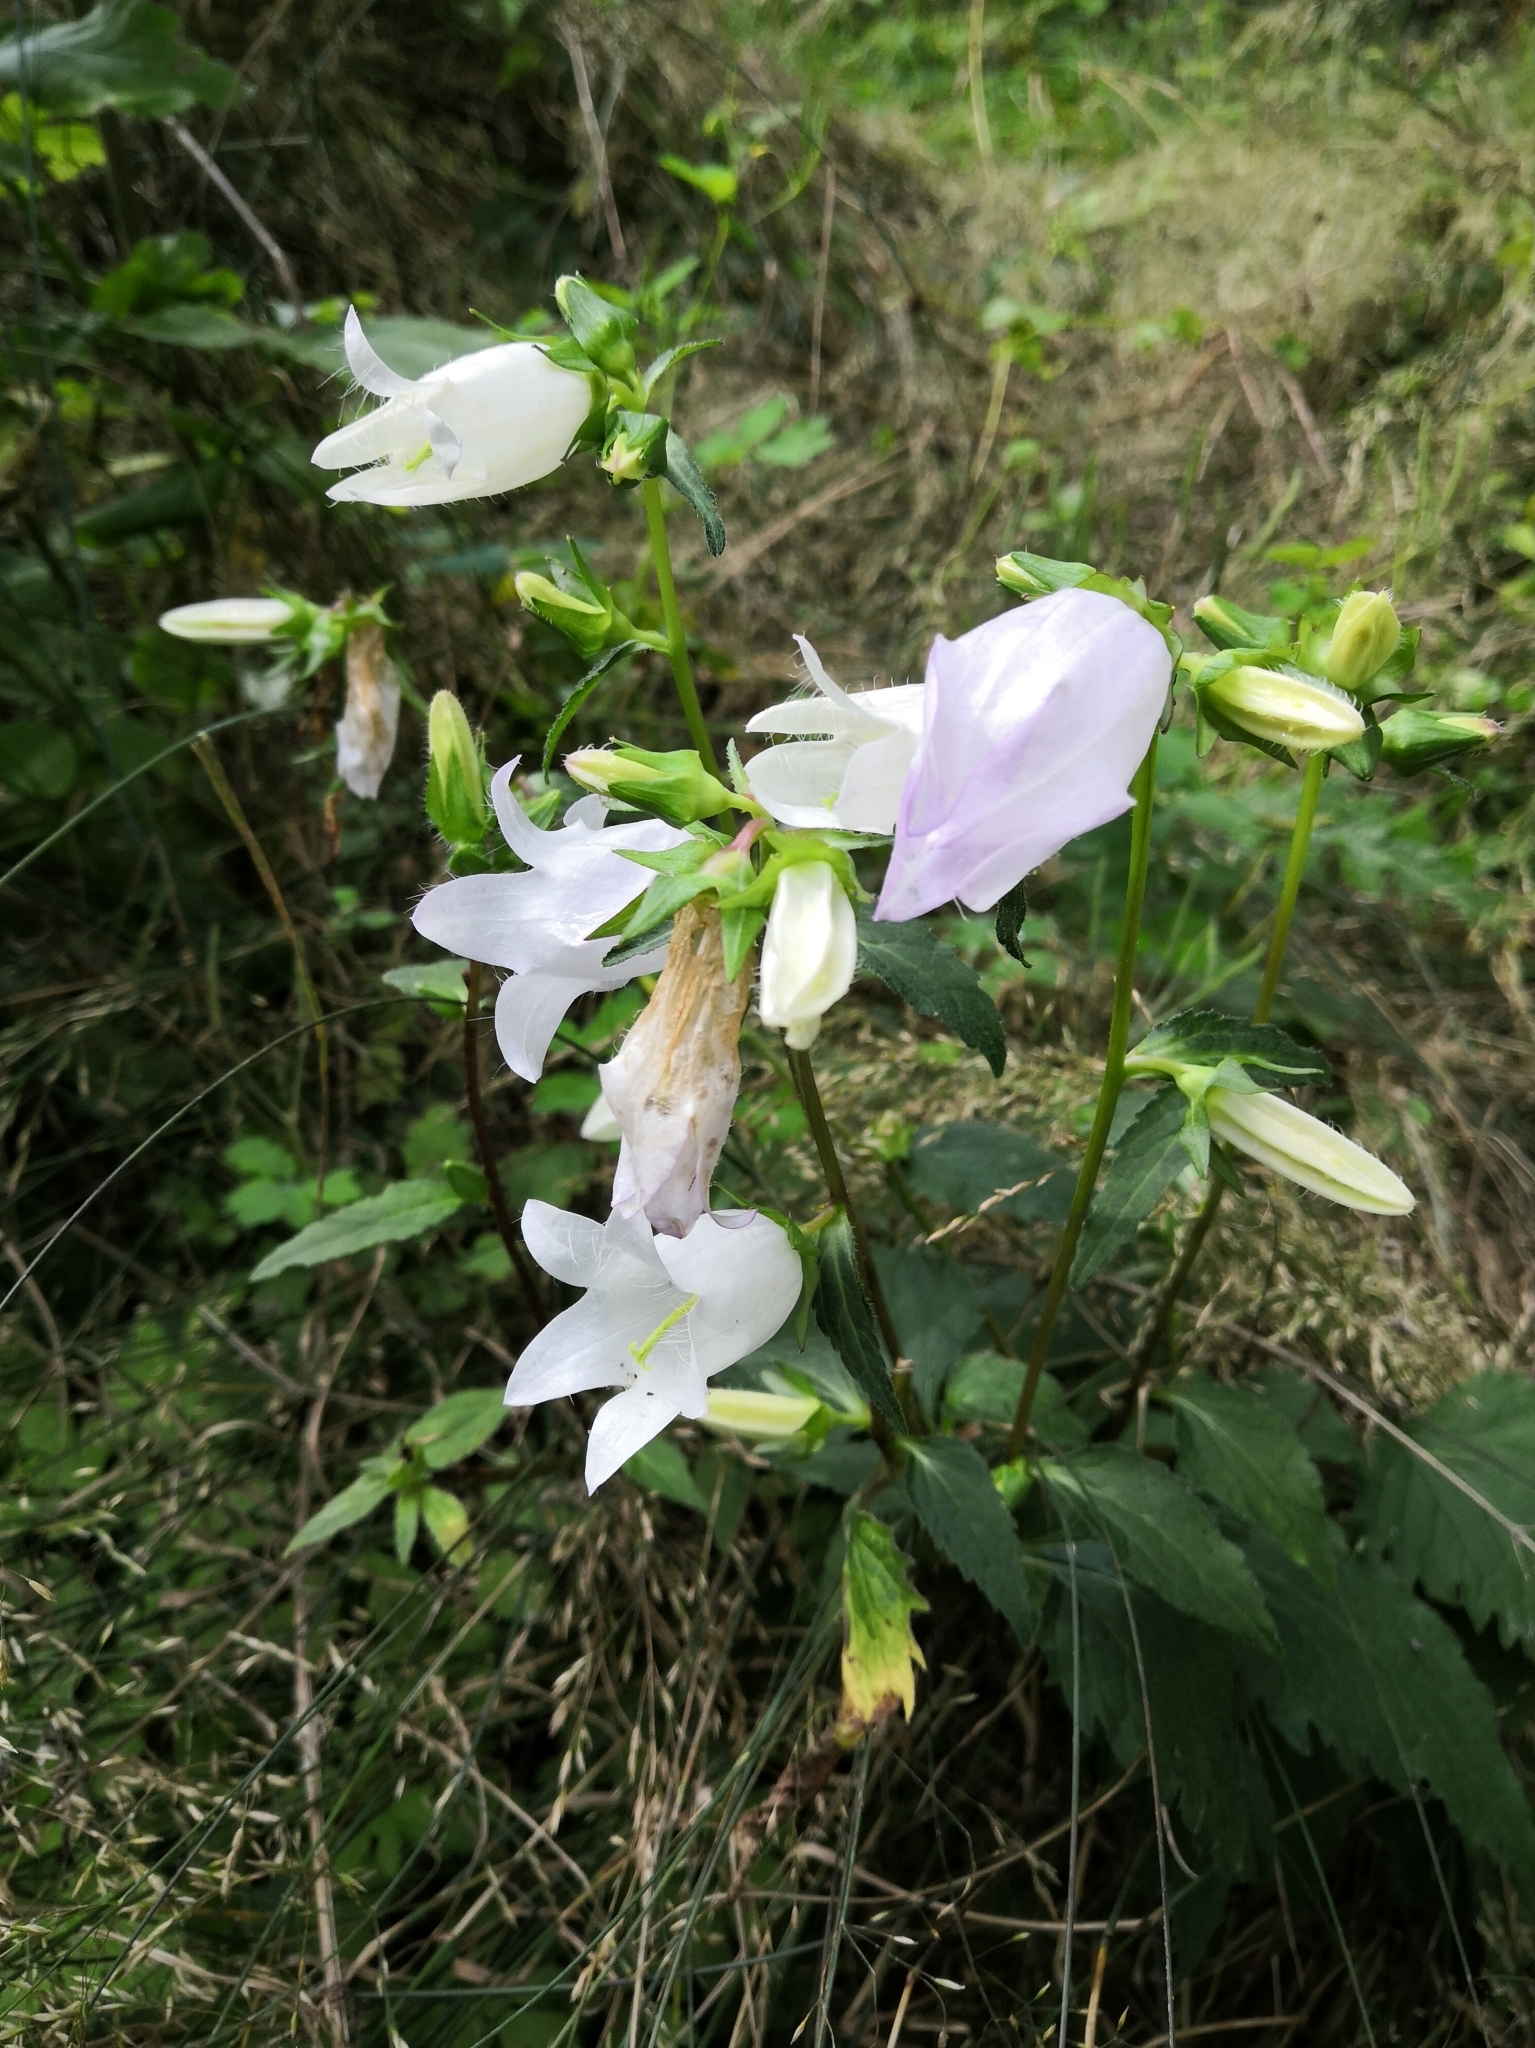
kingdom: Plantae
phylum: Tracheophyta
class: Magnoliopsida
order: Asterales
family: Campanulaceae
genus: Campanula
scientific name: Campanula trachelium
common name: Nettle-leaved bellflower
